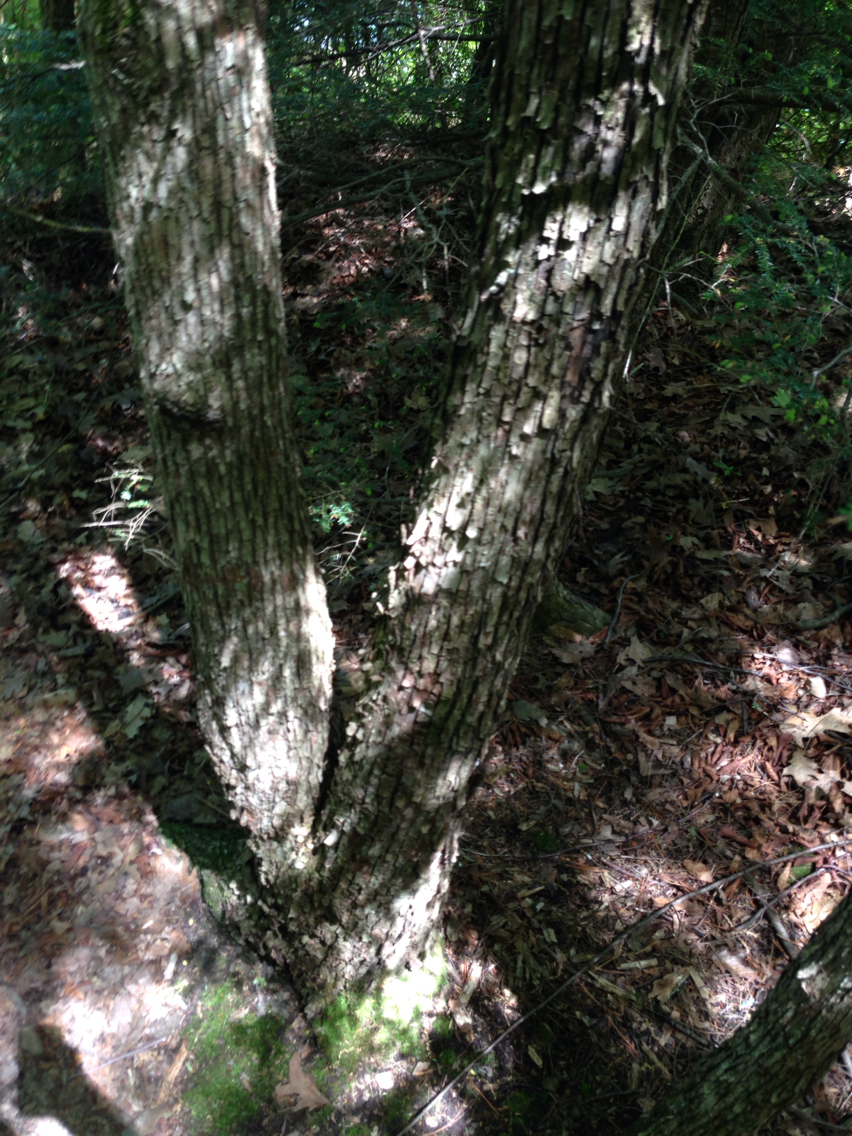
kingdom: Plantae
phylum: Tracheophyta
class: Magnoliopsida
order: Fagales
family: Betulaceae
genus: Ostrya
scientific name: Ostrya virginiana
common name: Ironwood
